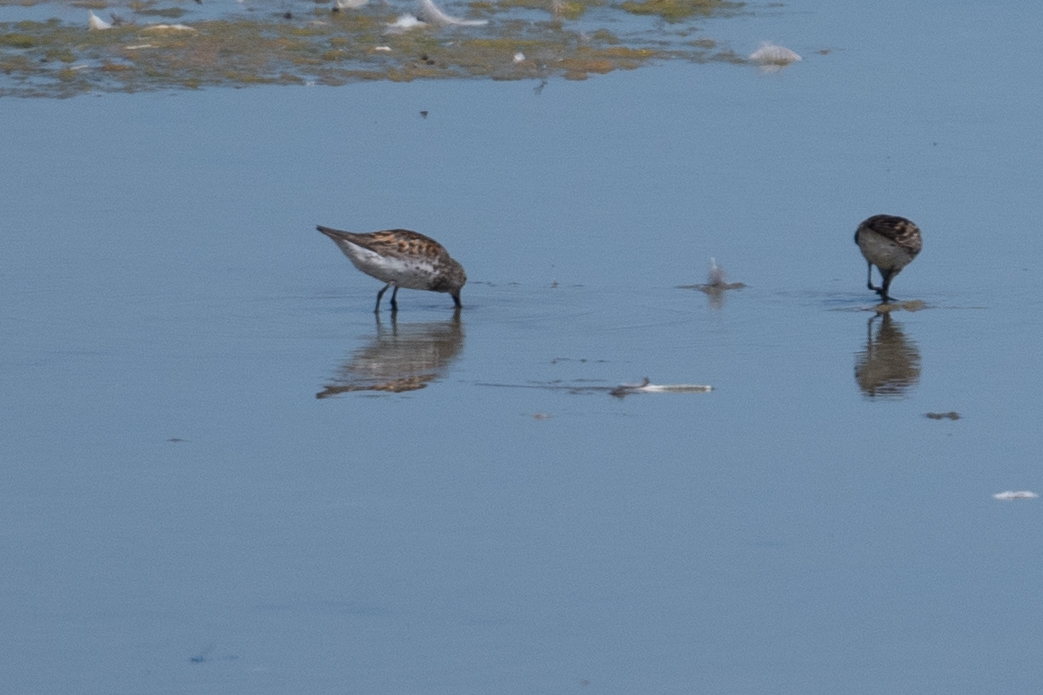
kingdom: Animalia
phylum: Chordata
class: Aves
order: Charadriiformes
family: Scolopacidae
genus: Calidris
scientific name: Calidris mauri
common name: Western sandpiper
